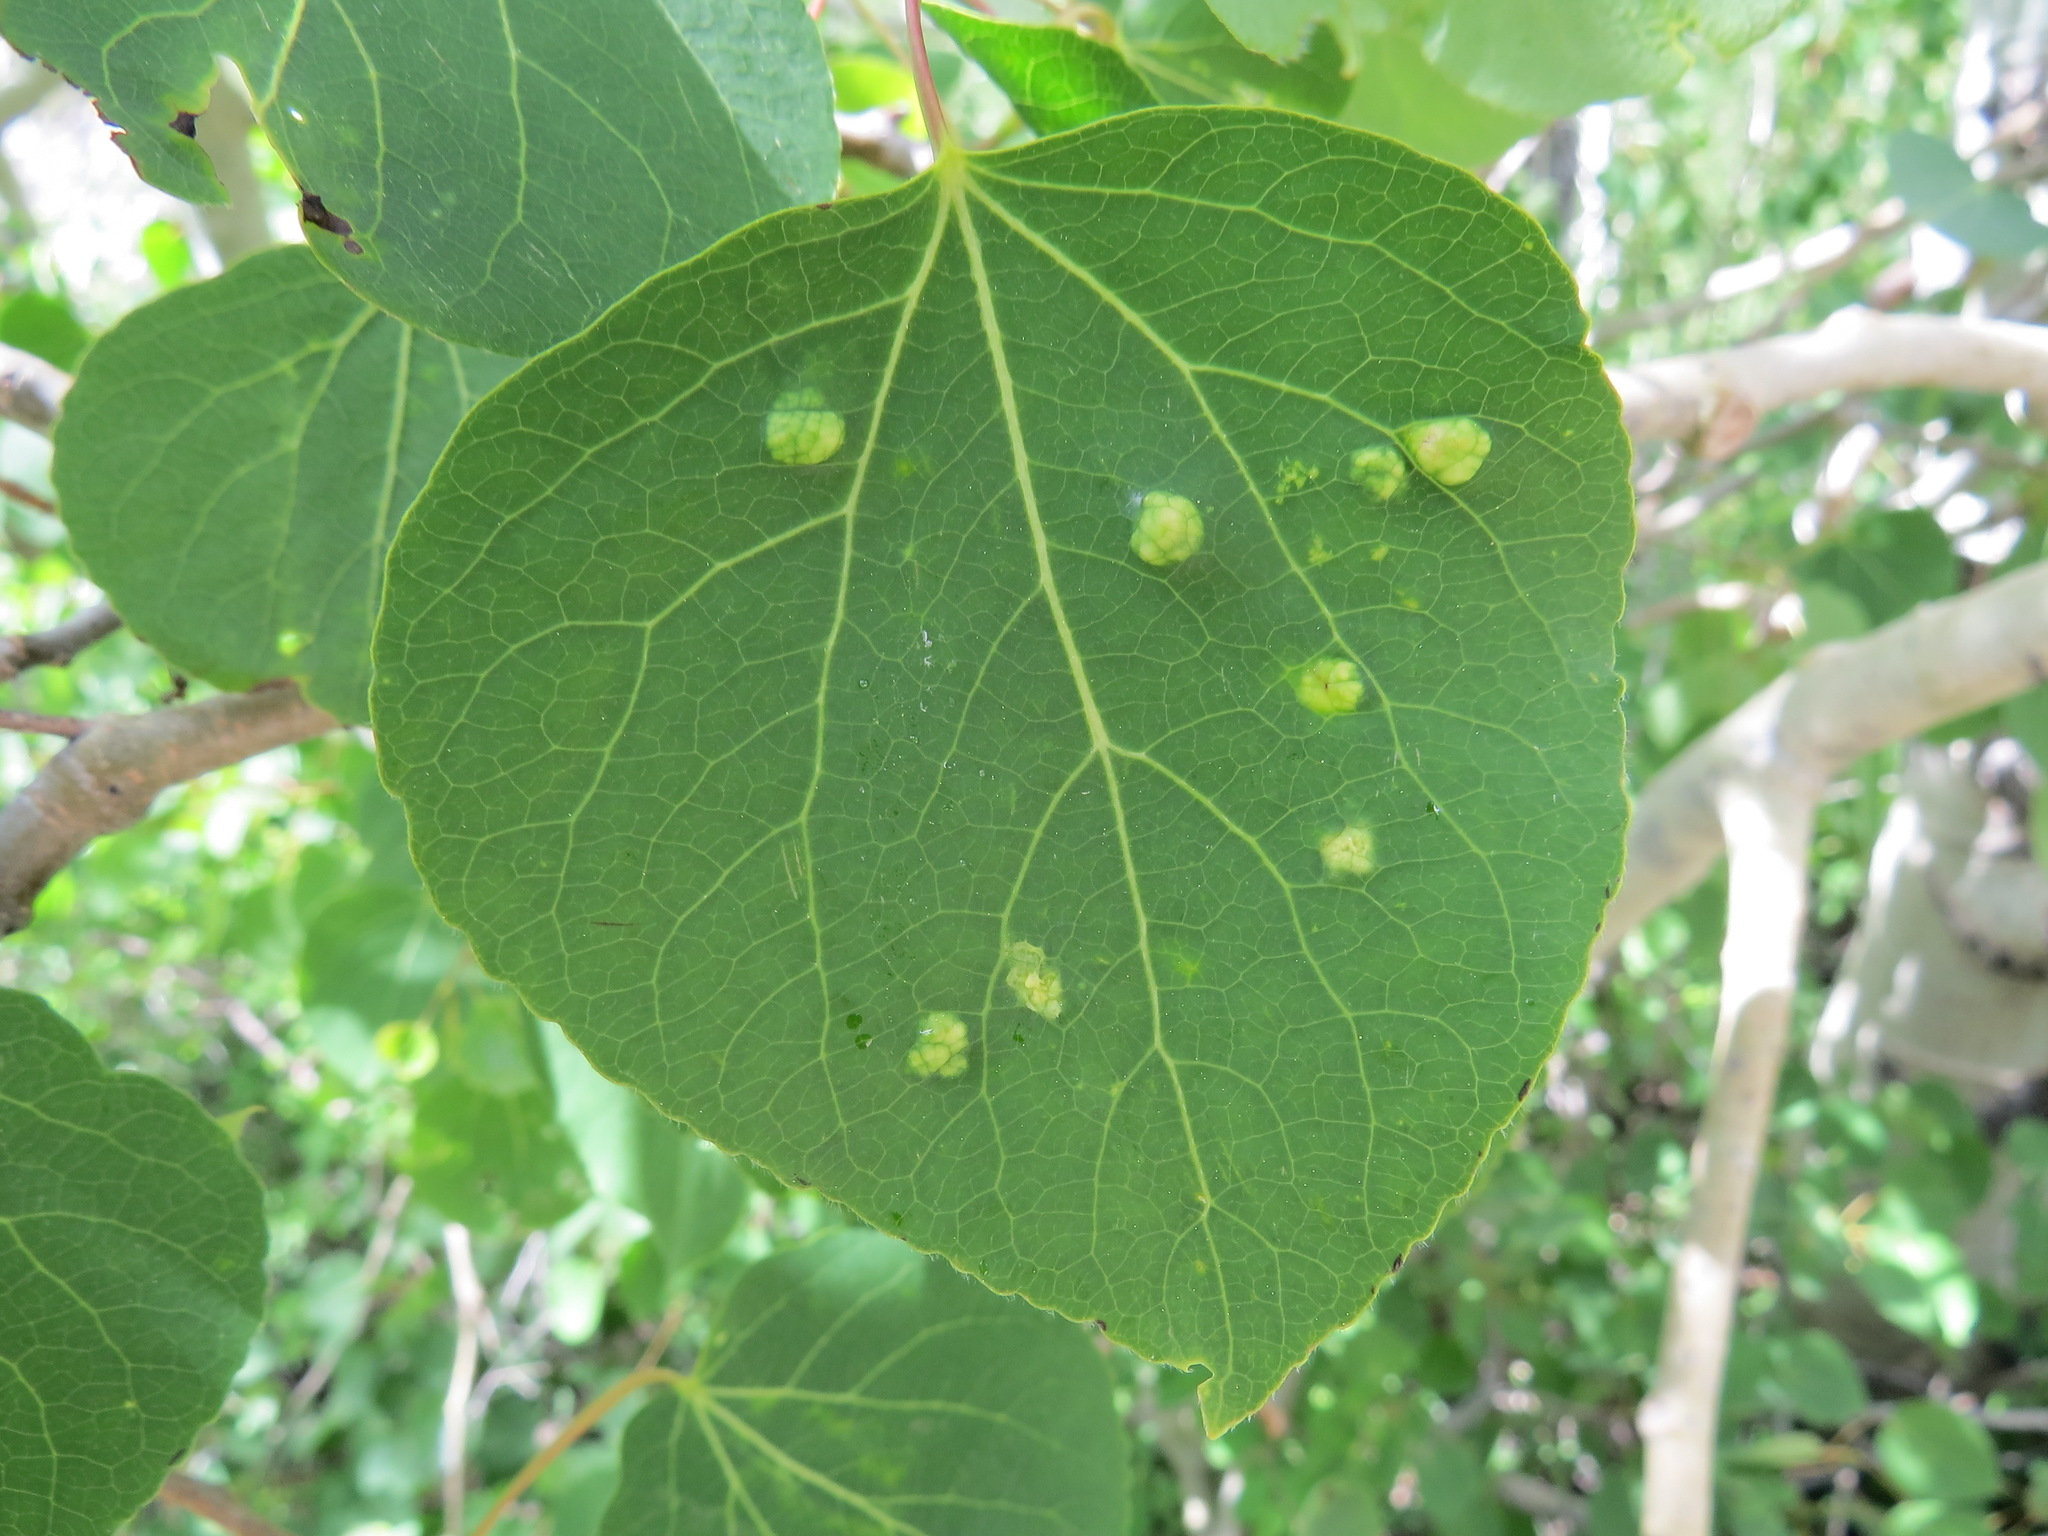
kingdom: Animalia
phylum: Arthropoda
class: Arachnida
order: Trombidiformes
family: Eriophyidae
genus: Phyllocoptes
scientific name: Phyllocoptes
